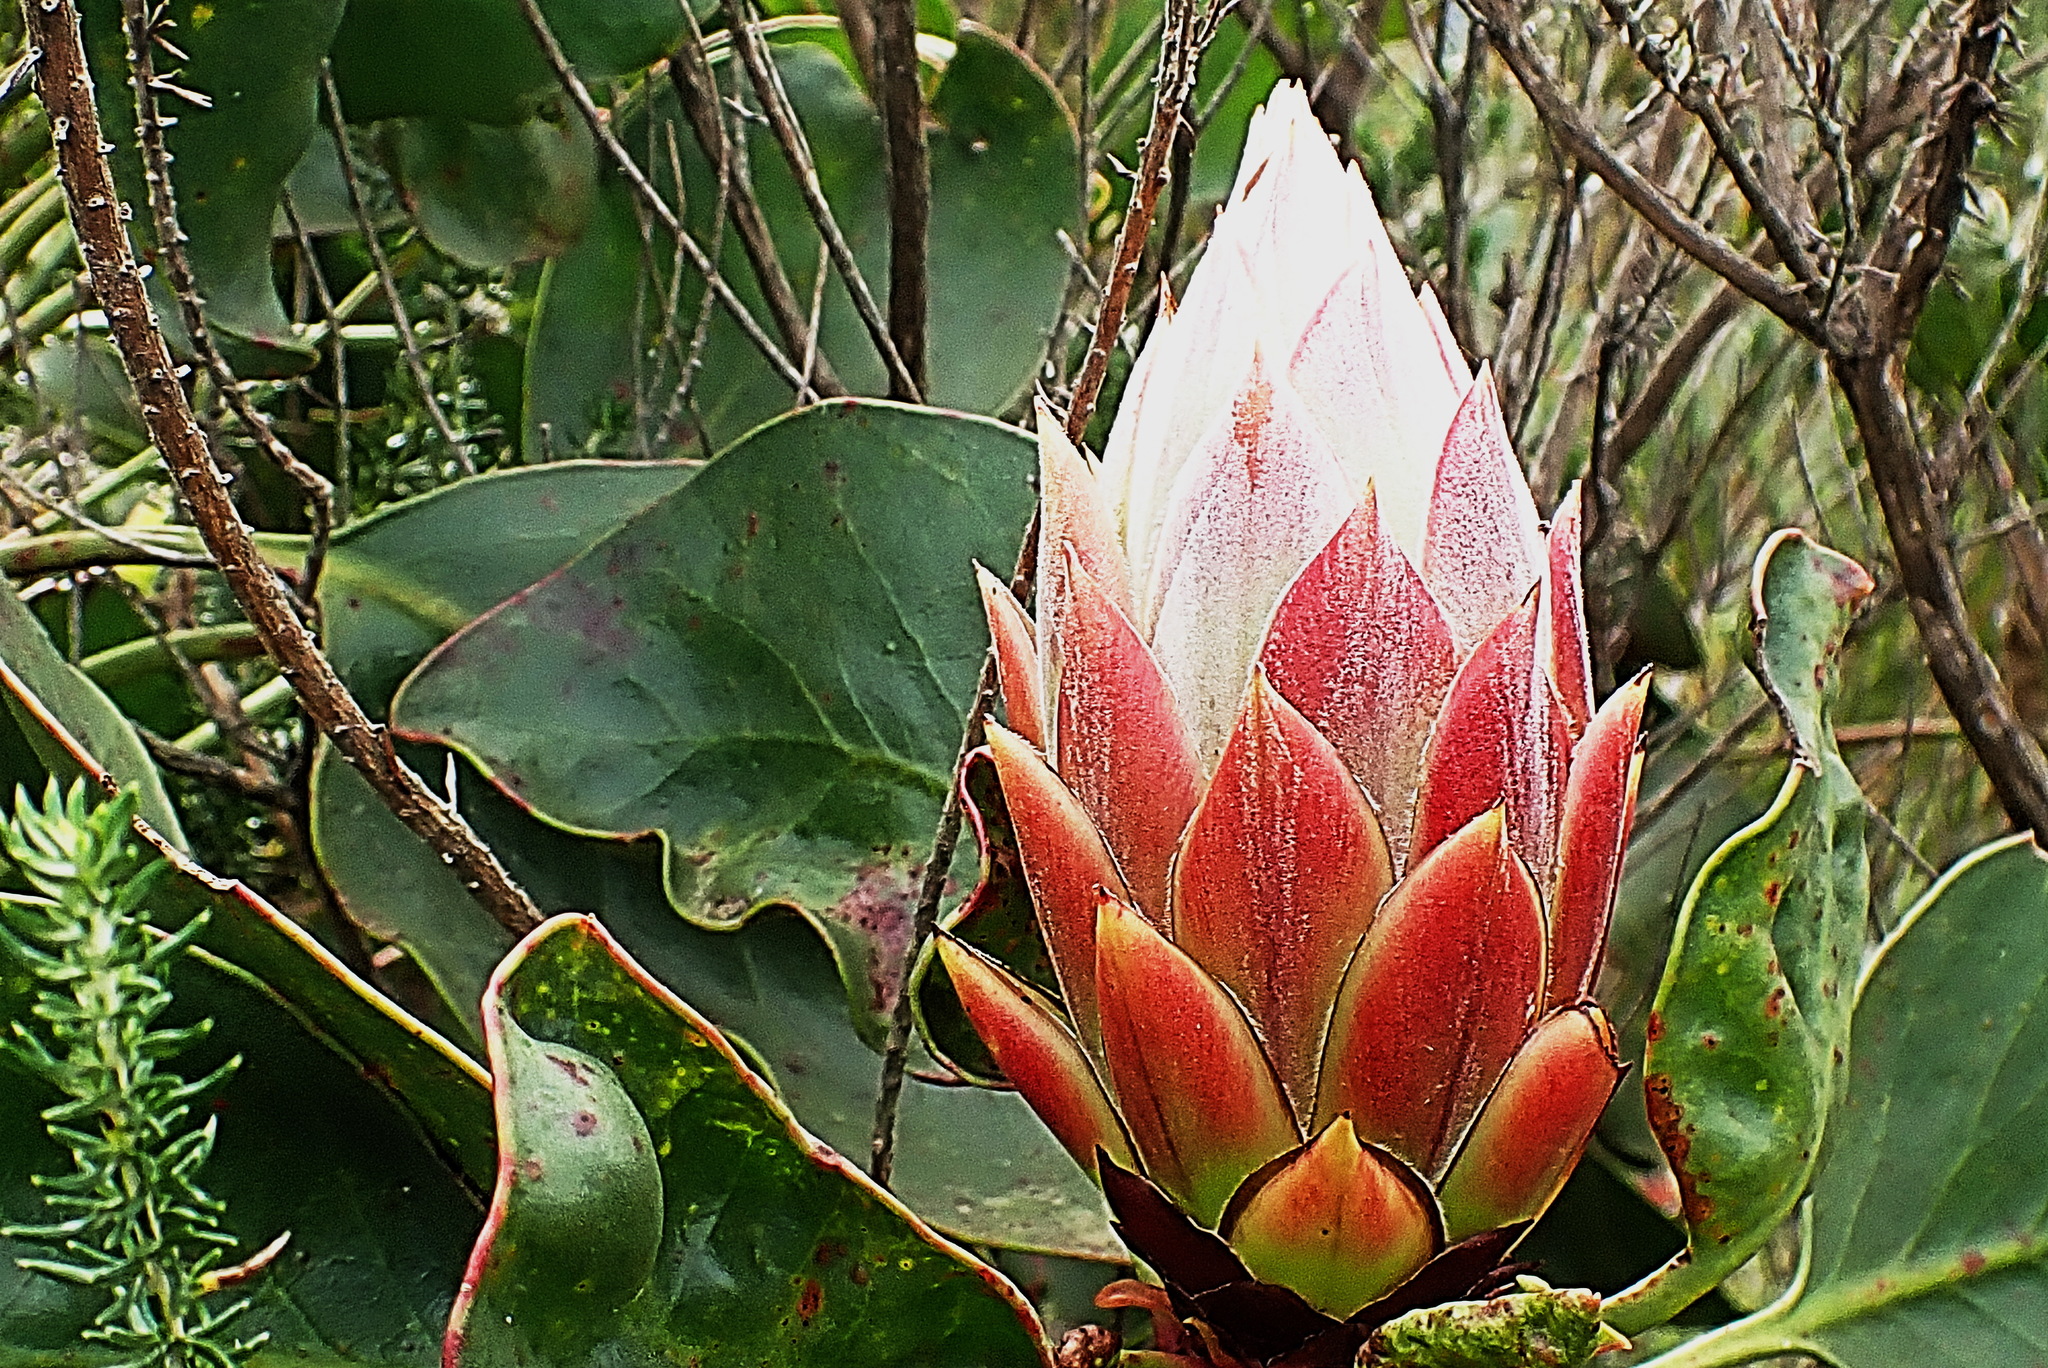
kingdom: Plantae
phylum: Tracheophyta
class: Magnoliopsida
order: Proteales
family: Proteaceae
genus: Protea
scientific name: Protea cynaroides
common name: King protea
